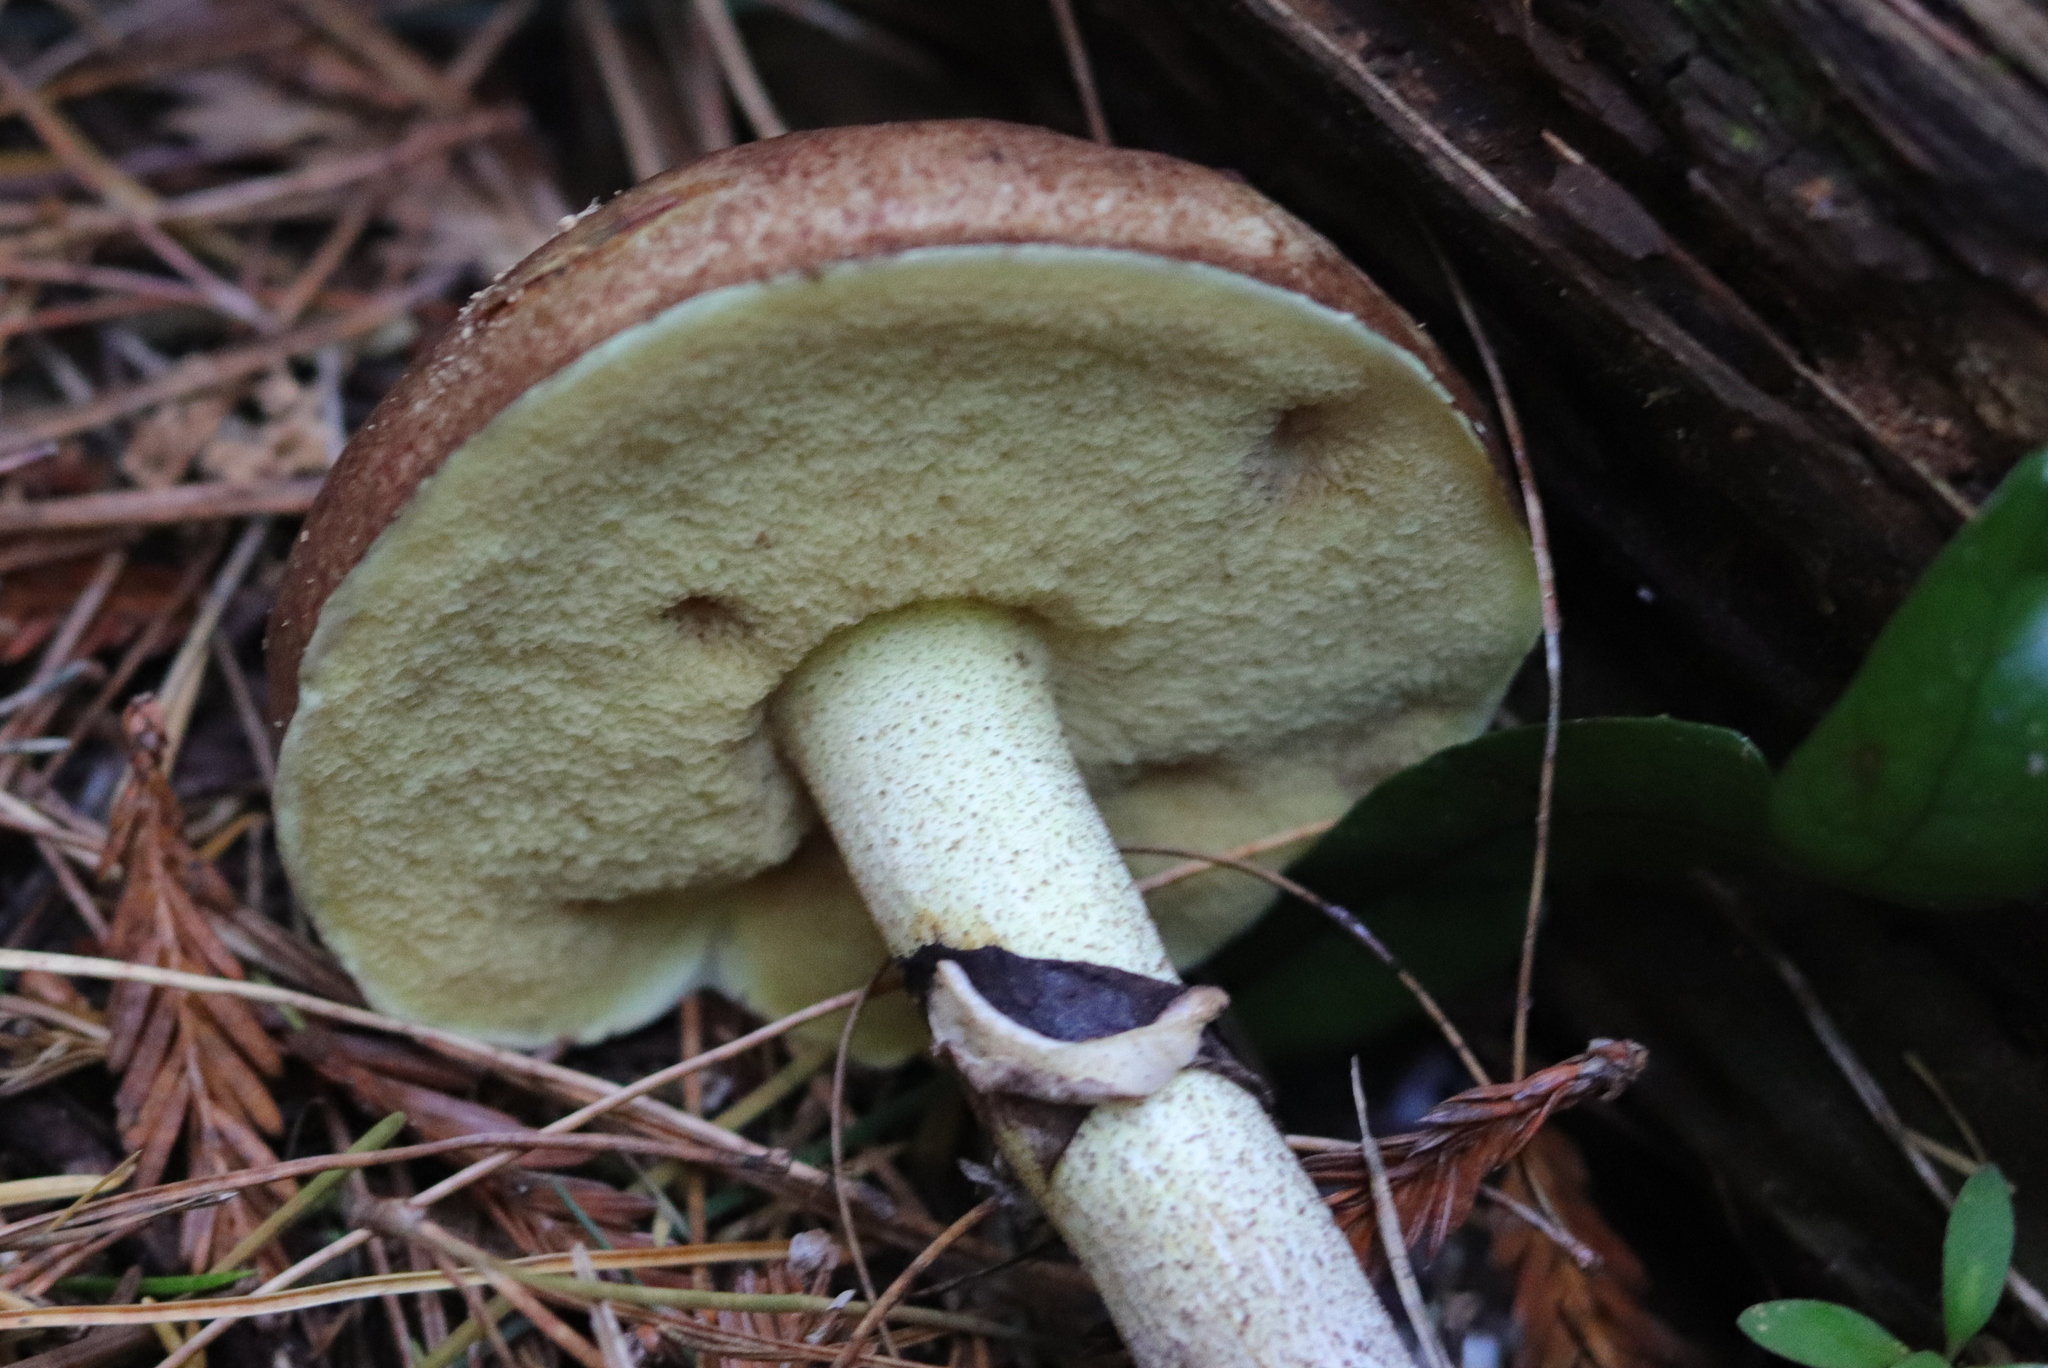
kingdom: Fungi
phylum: Basidiomycota
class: Agaricomycetes
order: Boletales
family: Suillaceae
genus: Suillus
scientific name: Suillus luteus
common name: Slippery jack
